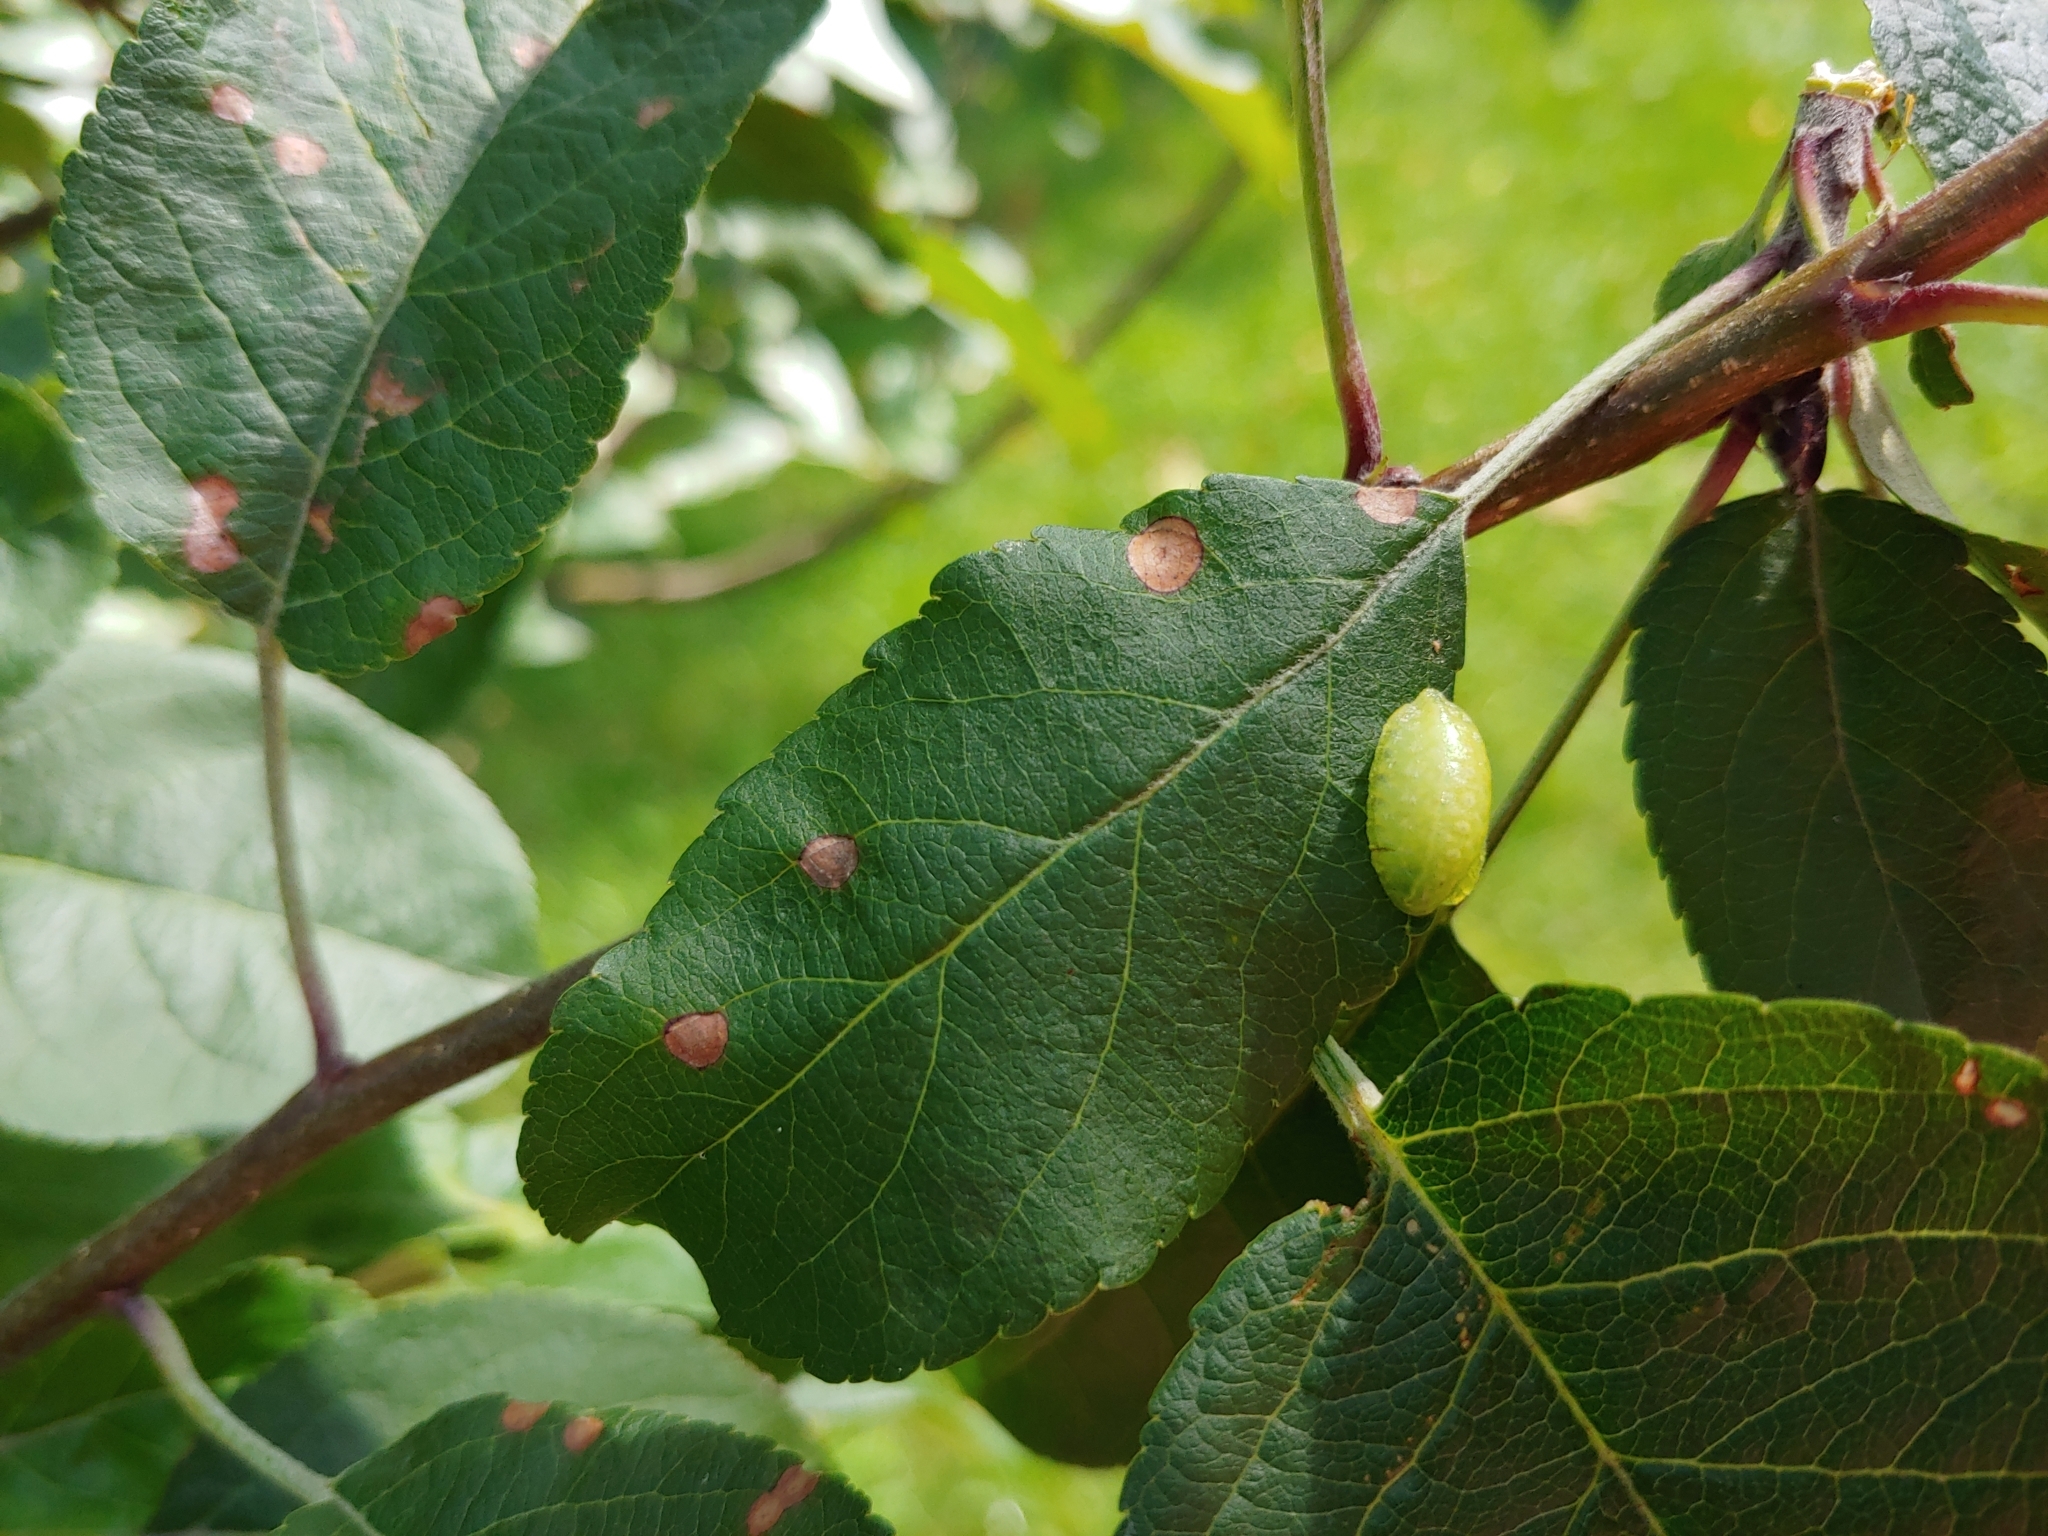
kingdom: Animalia
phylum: Arthropoda
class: Insecta
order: Lepidoptera
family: Limacodidae
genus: Lithacodes
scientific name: Lithacodes fasciola
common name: Yellow-shouldered slug moth
